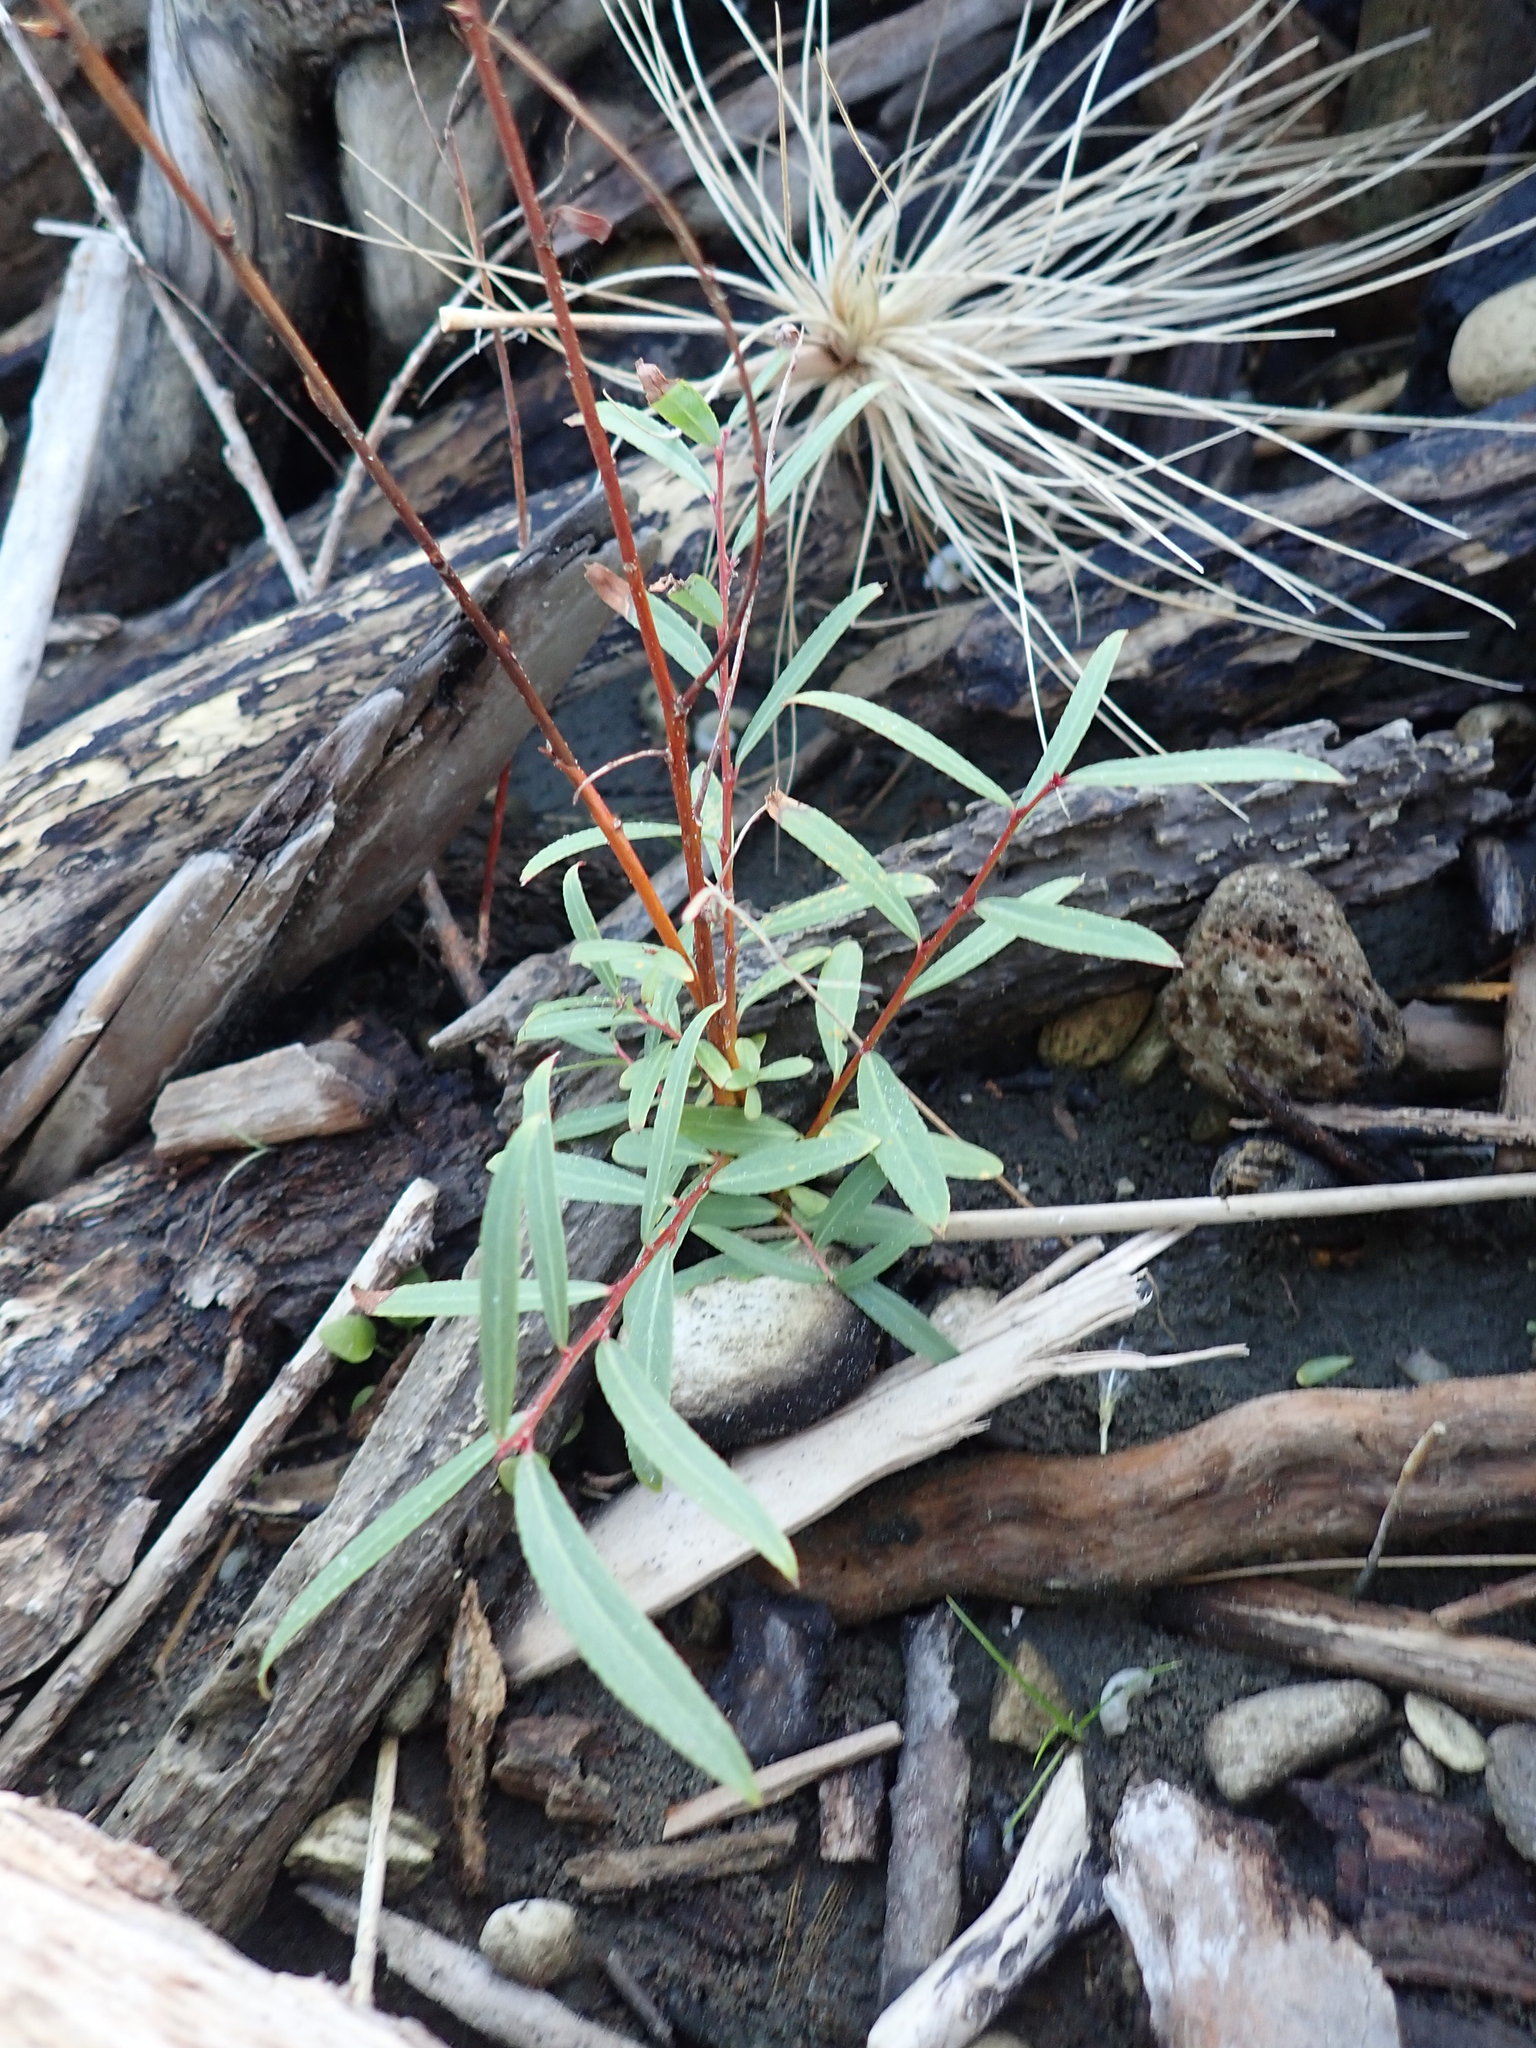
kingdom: Plantae
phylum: Tracheophyta
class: Magnoliopsida
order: Malpighiales
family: Salicaceae
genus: Salix
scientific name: Salix fragilis
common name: Crack willow
